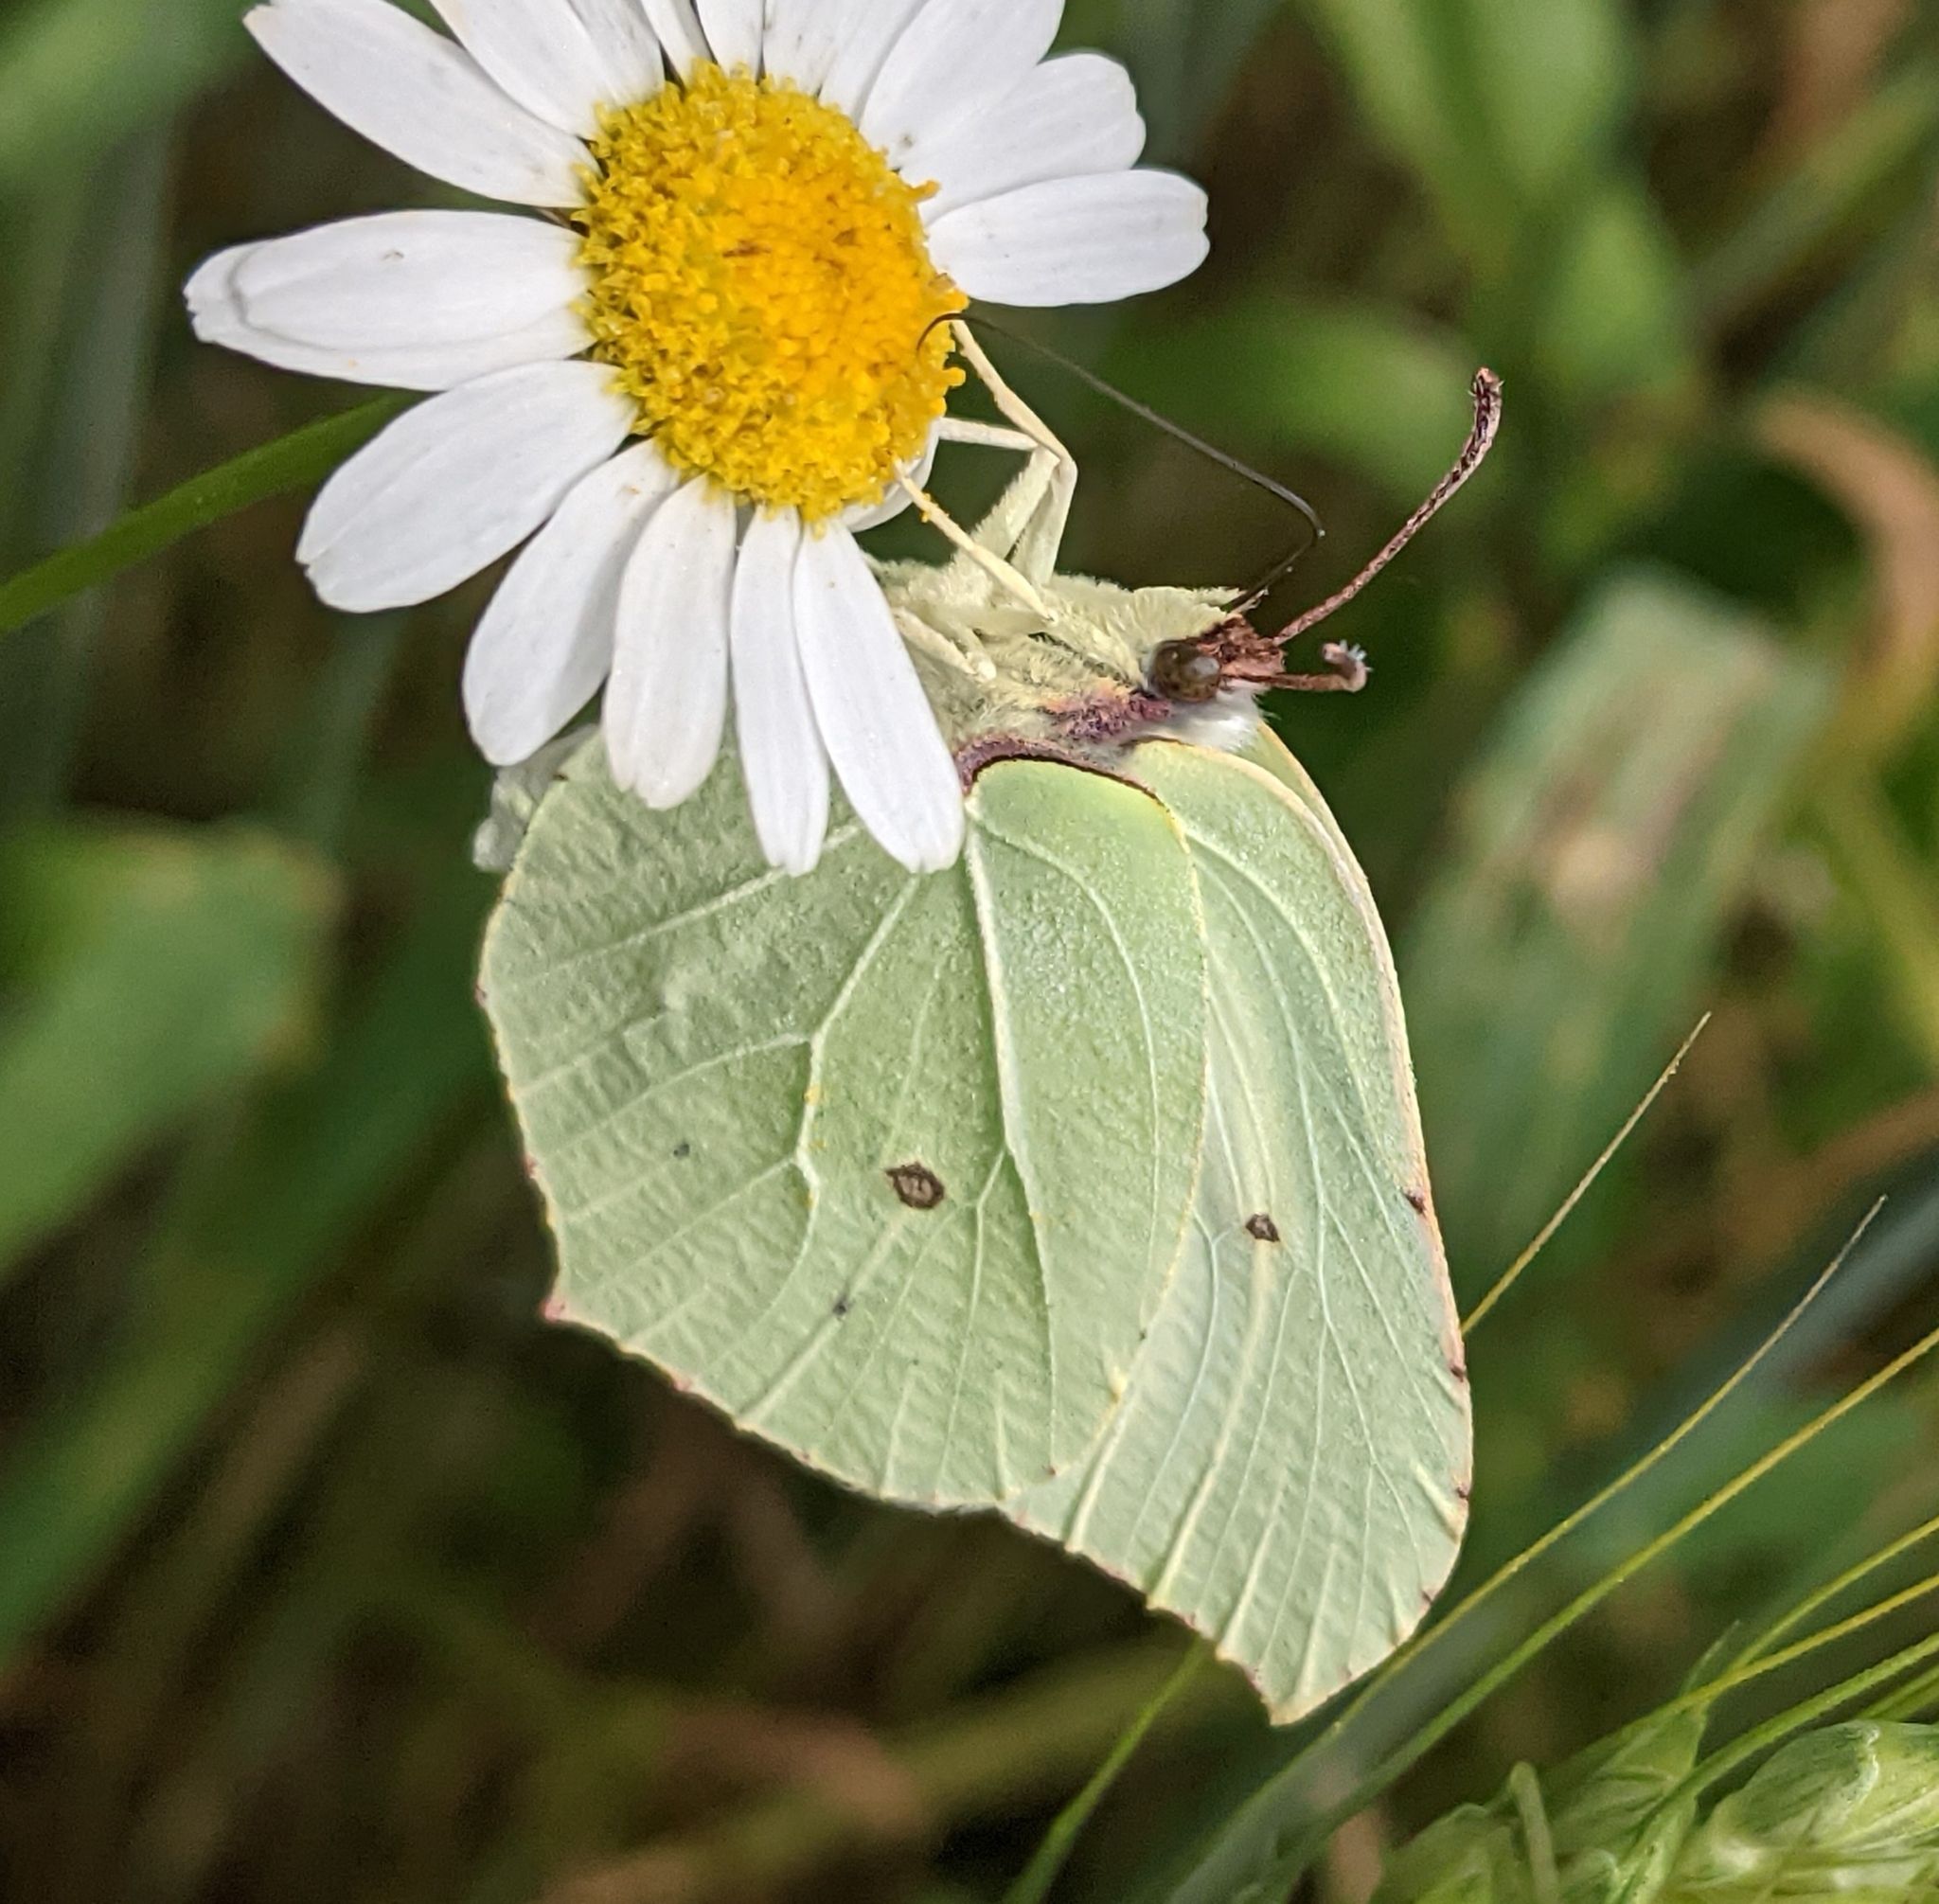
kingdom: Animalia
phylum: Arthropoda
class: Insecta
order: Lepidoptera
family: Pieridae
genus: Gonepteryx
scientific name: Gonepteryx rhamni
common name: Brimstone
